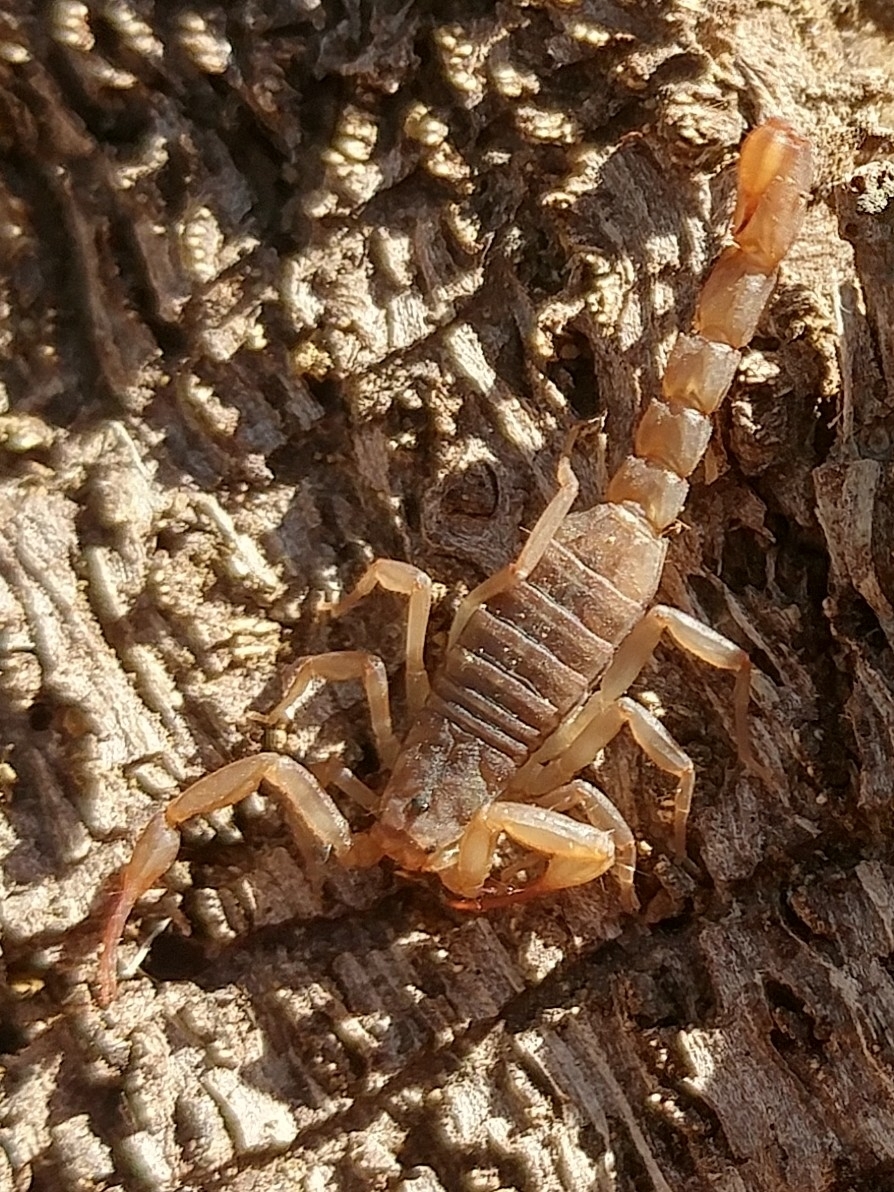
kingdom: Animalia
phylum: Arthropoda
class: Arachnida
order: Scorpiones
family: Vaejovidae
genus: Serradigitus
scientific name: Serradigitus gertschi
